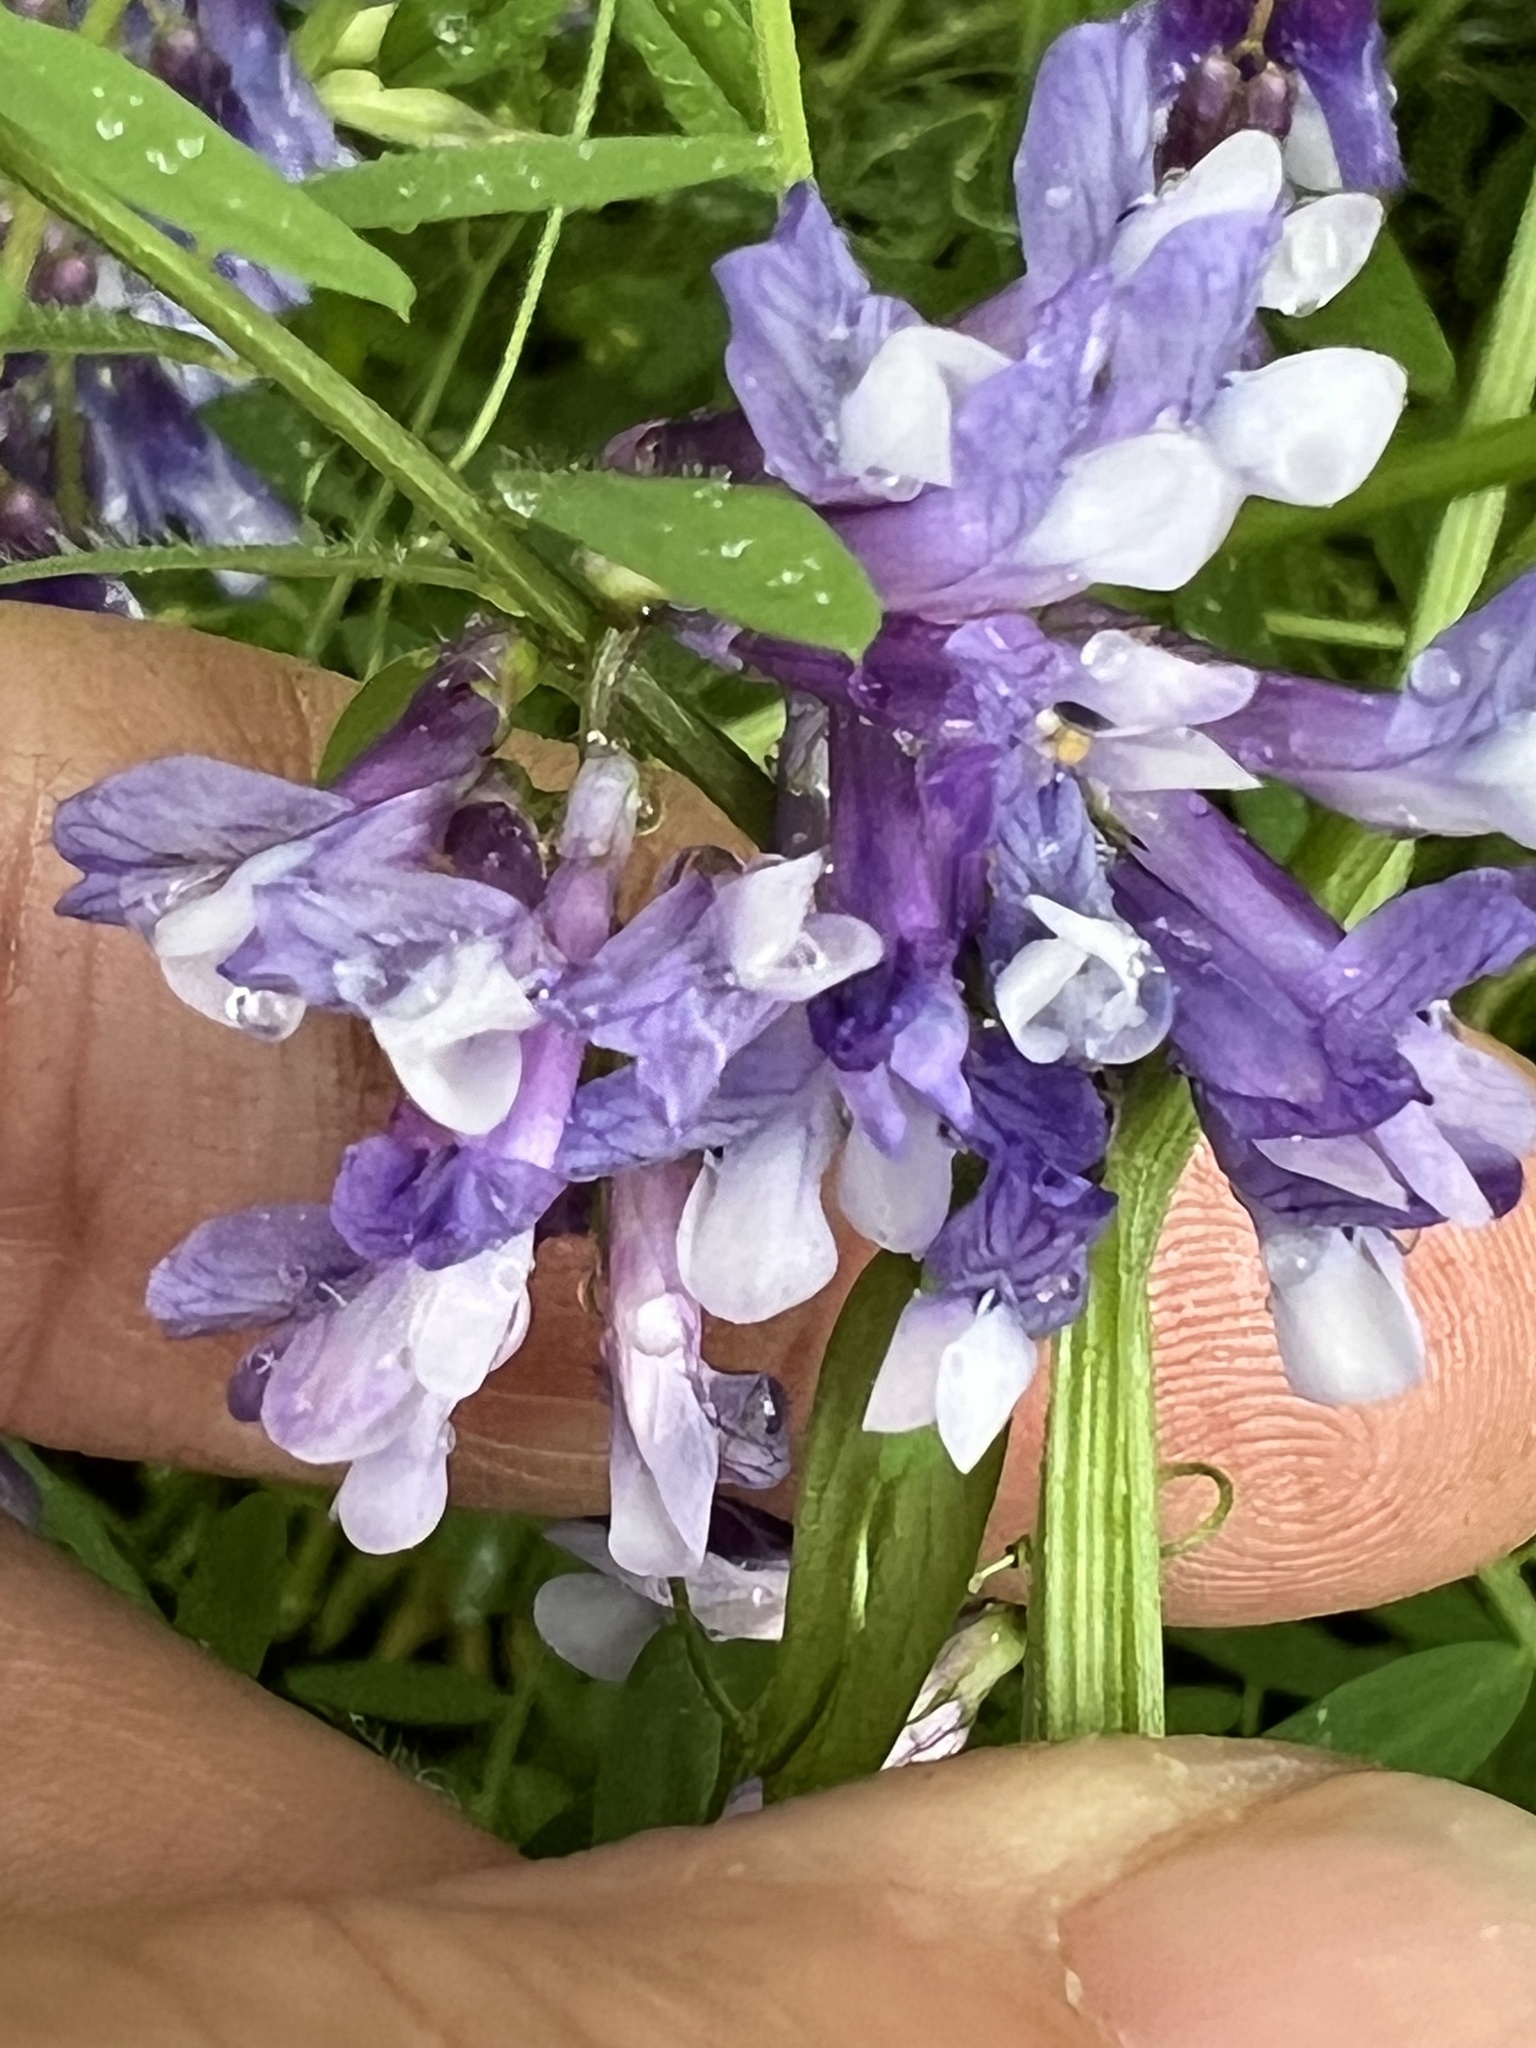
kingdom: Plantae
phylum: Tracheophyta
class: Magnoliopsida
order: Fabales
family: Fabaceae
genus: Vicia
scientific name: Vicia villosa
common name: Fodder vetch
